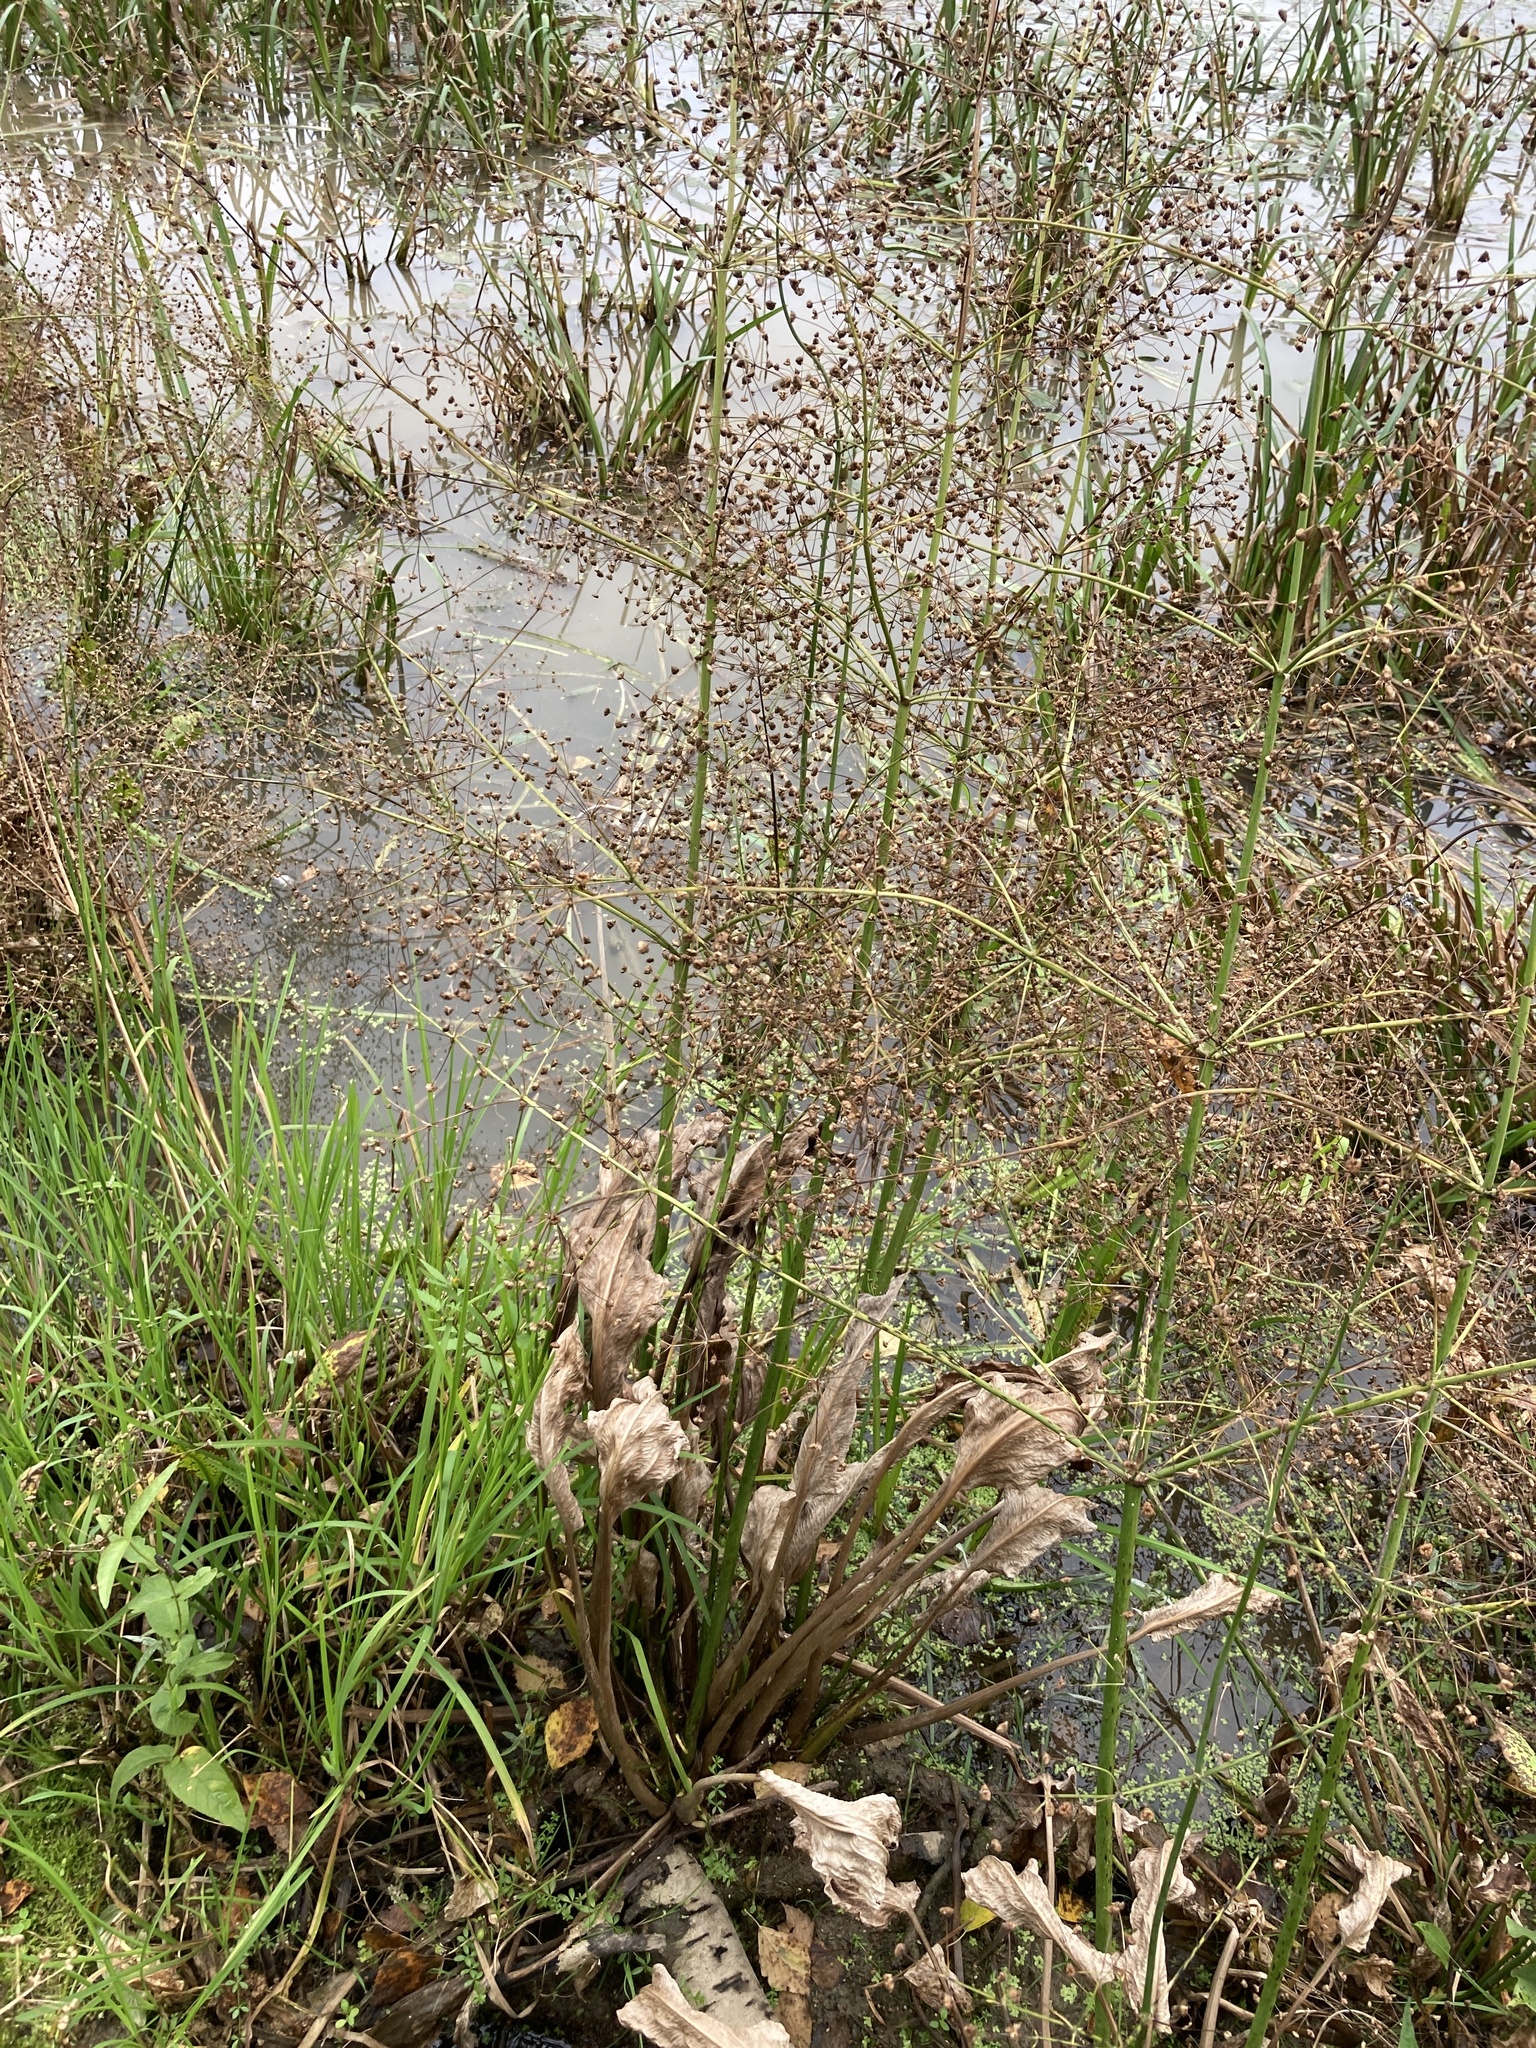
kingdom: Plantae
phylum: Tracheophyta
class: Liliopsida
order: Alismatales
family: Alismataceae
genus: Alisma
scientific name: Alisma plantago-aquatica
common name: Water-plantain
